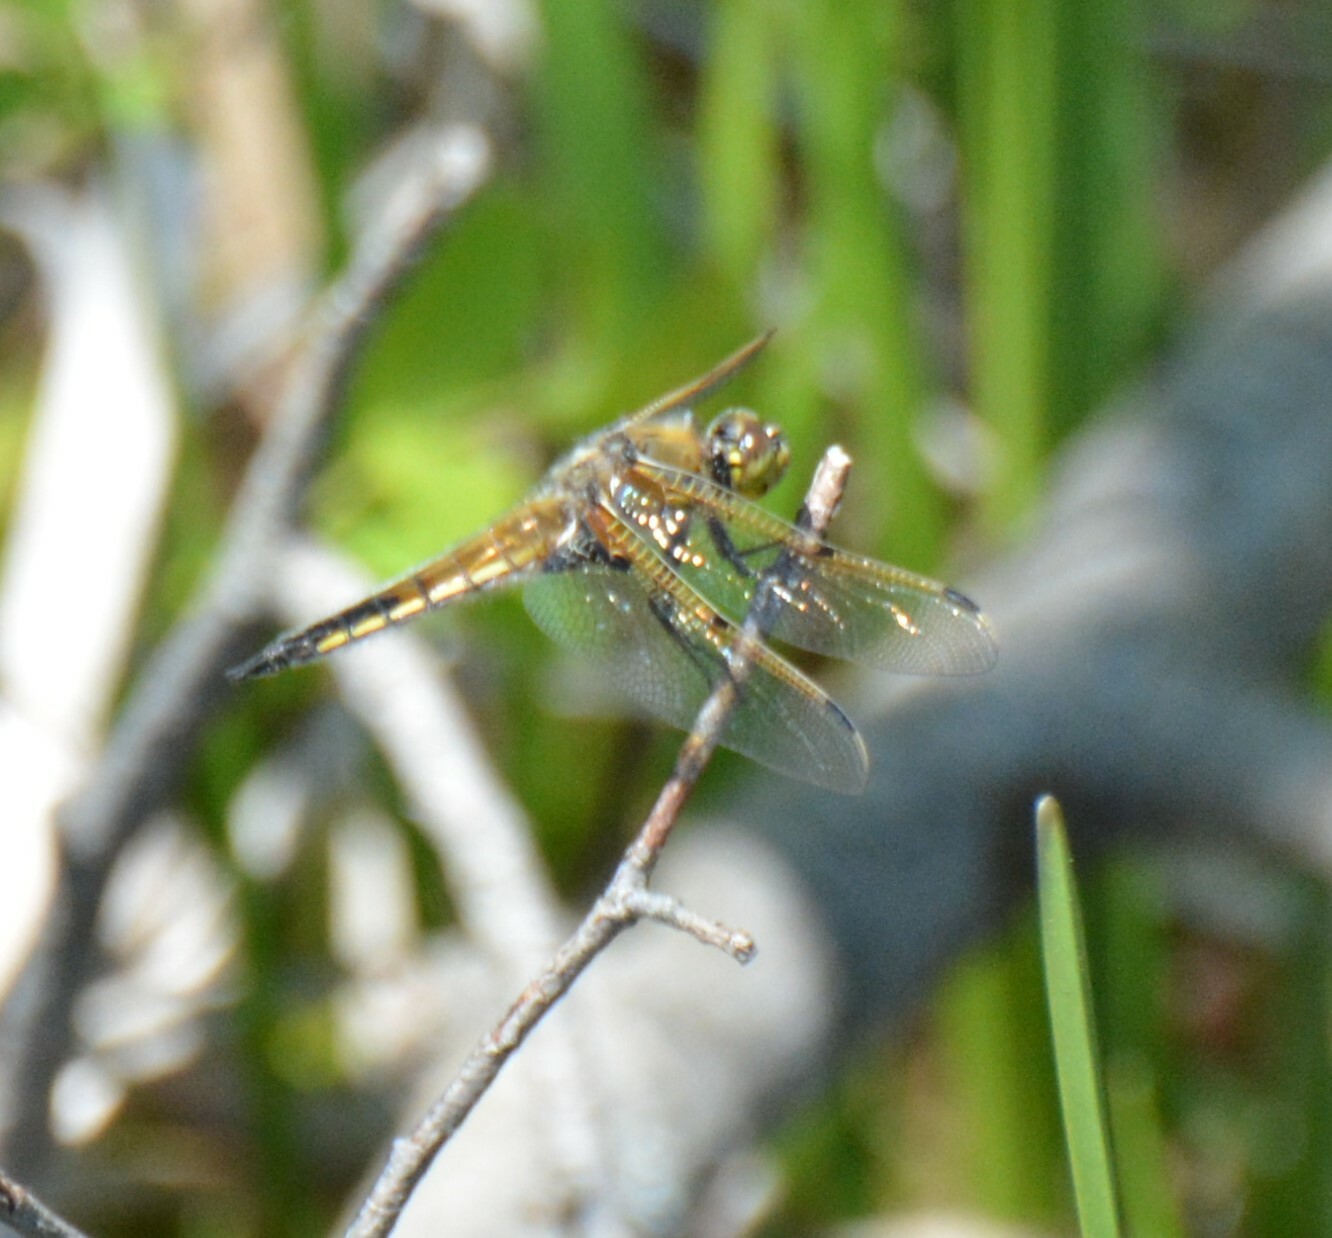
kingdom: Animalia
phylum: Arthropoda
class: Insecta
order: Odonata
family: Libellulidae
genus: Libellula
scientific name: Libellula quadrimaculata
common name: Four-spotted chaser
